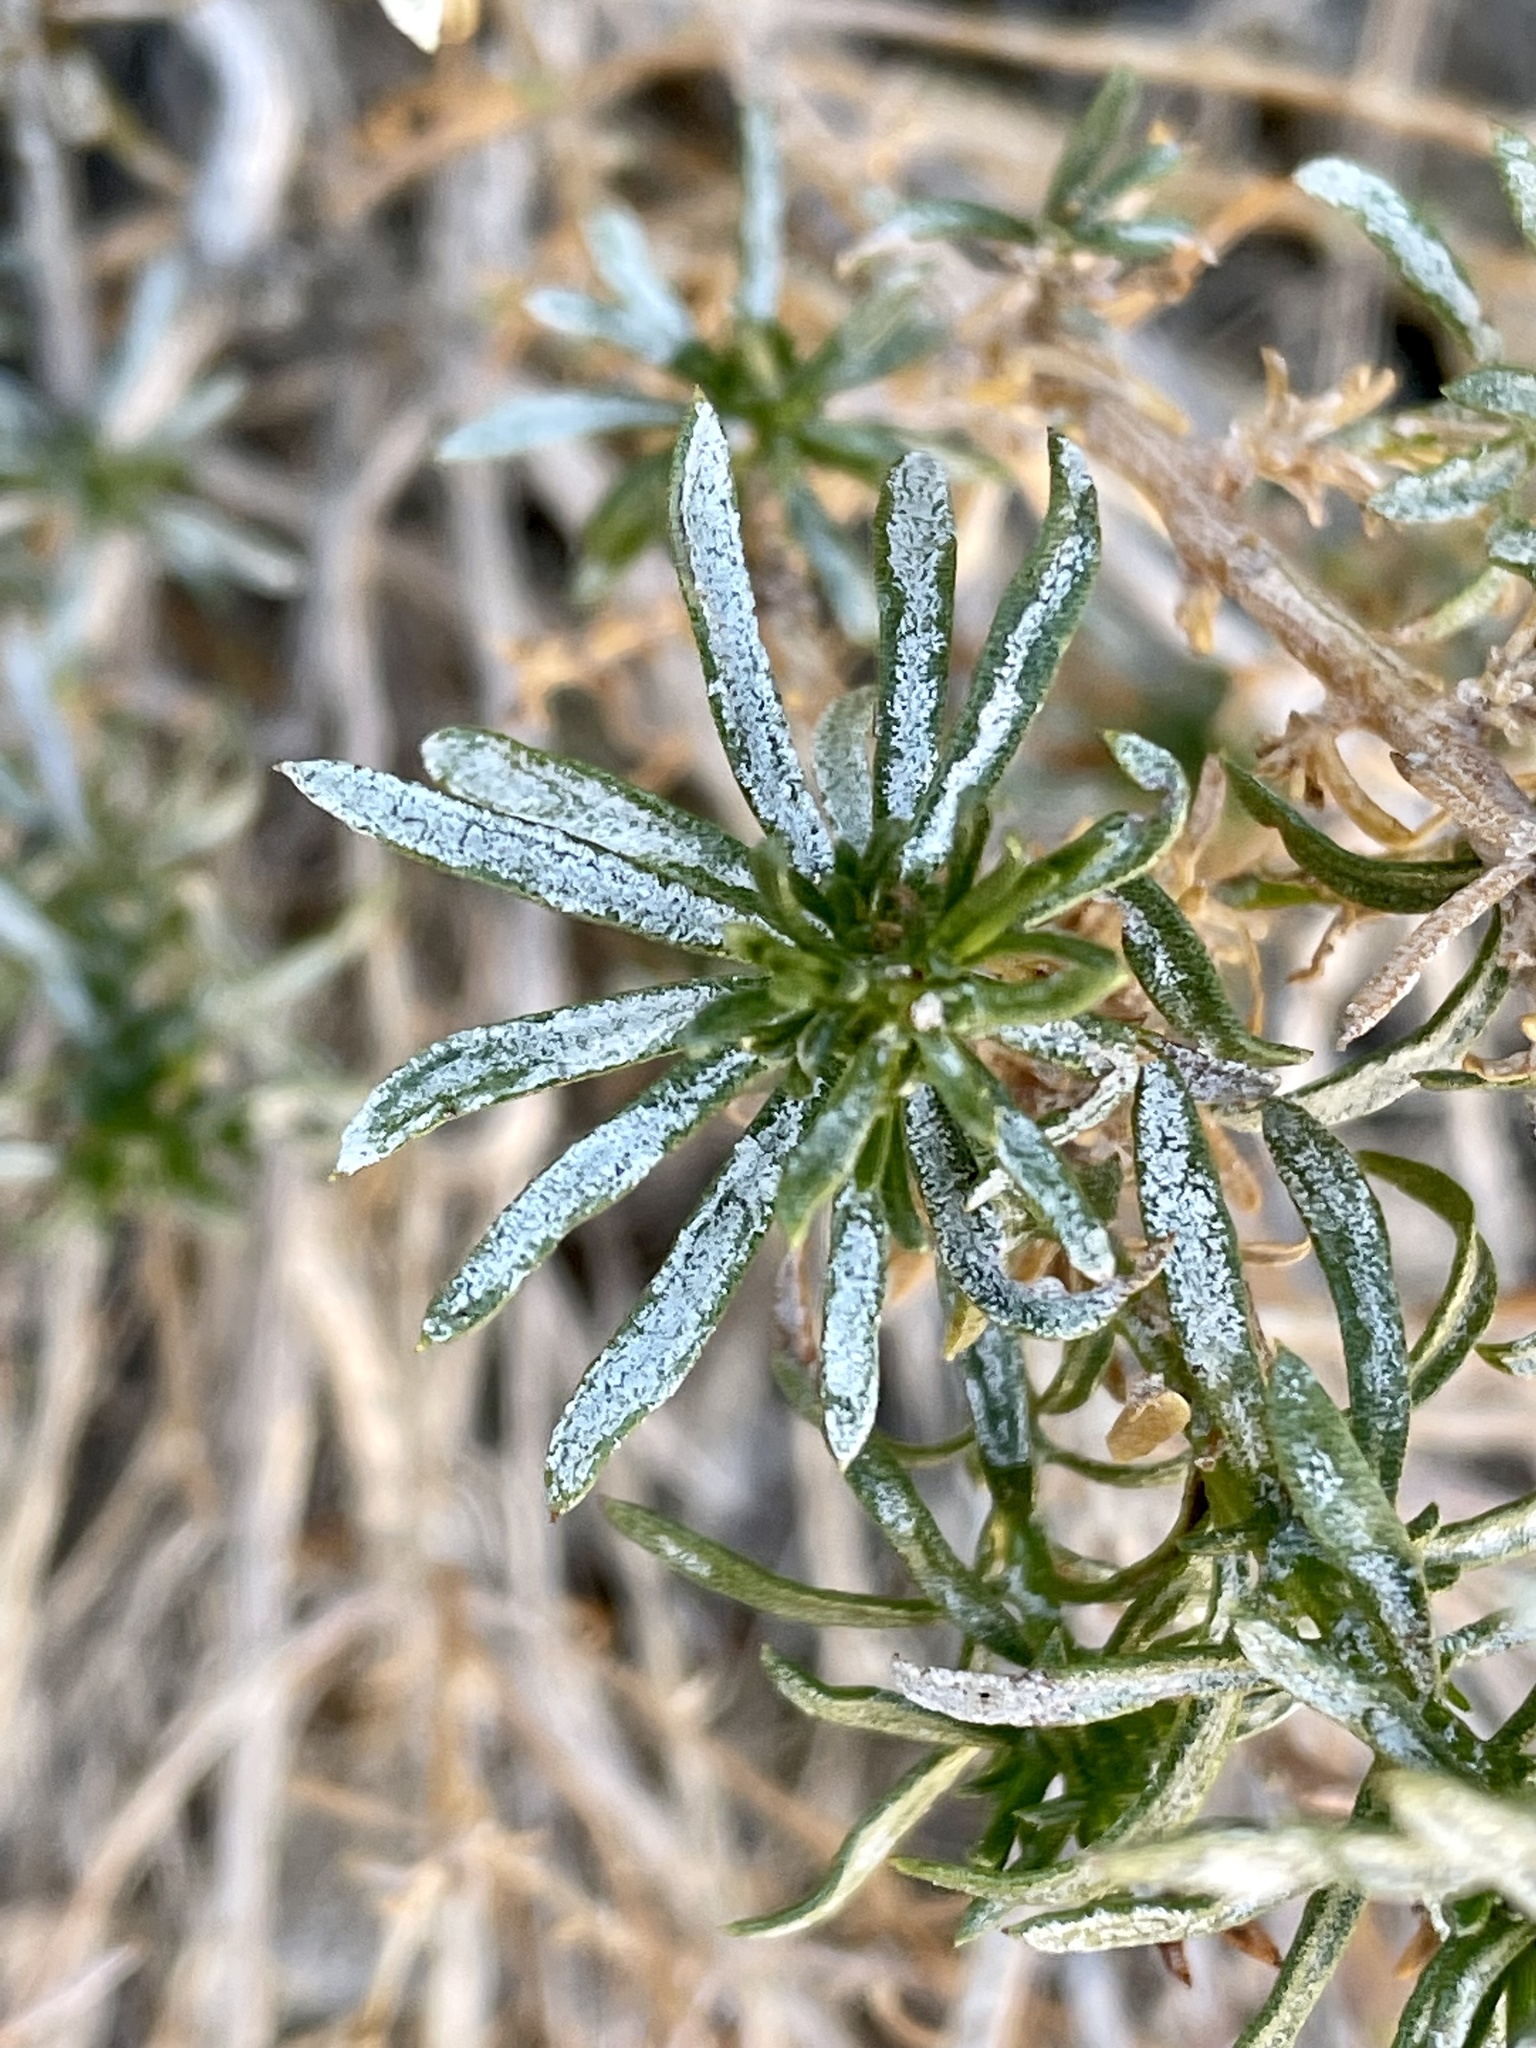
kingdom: Plantae
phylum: Tracheophyta
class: Magnoliopsida
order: Asterales
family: Asteraceae
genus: Ericameria
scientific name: Ericameria linearifolia
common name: Interior goldenbush
